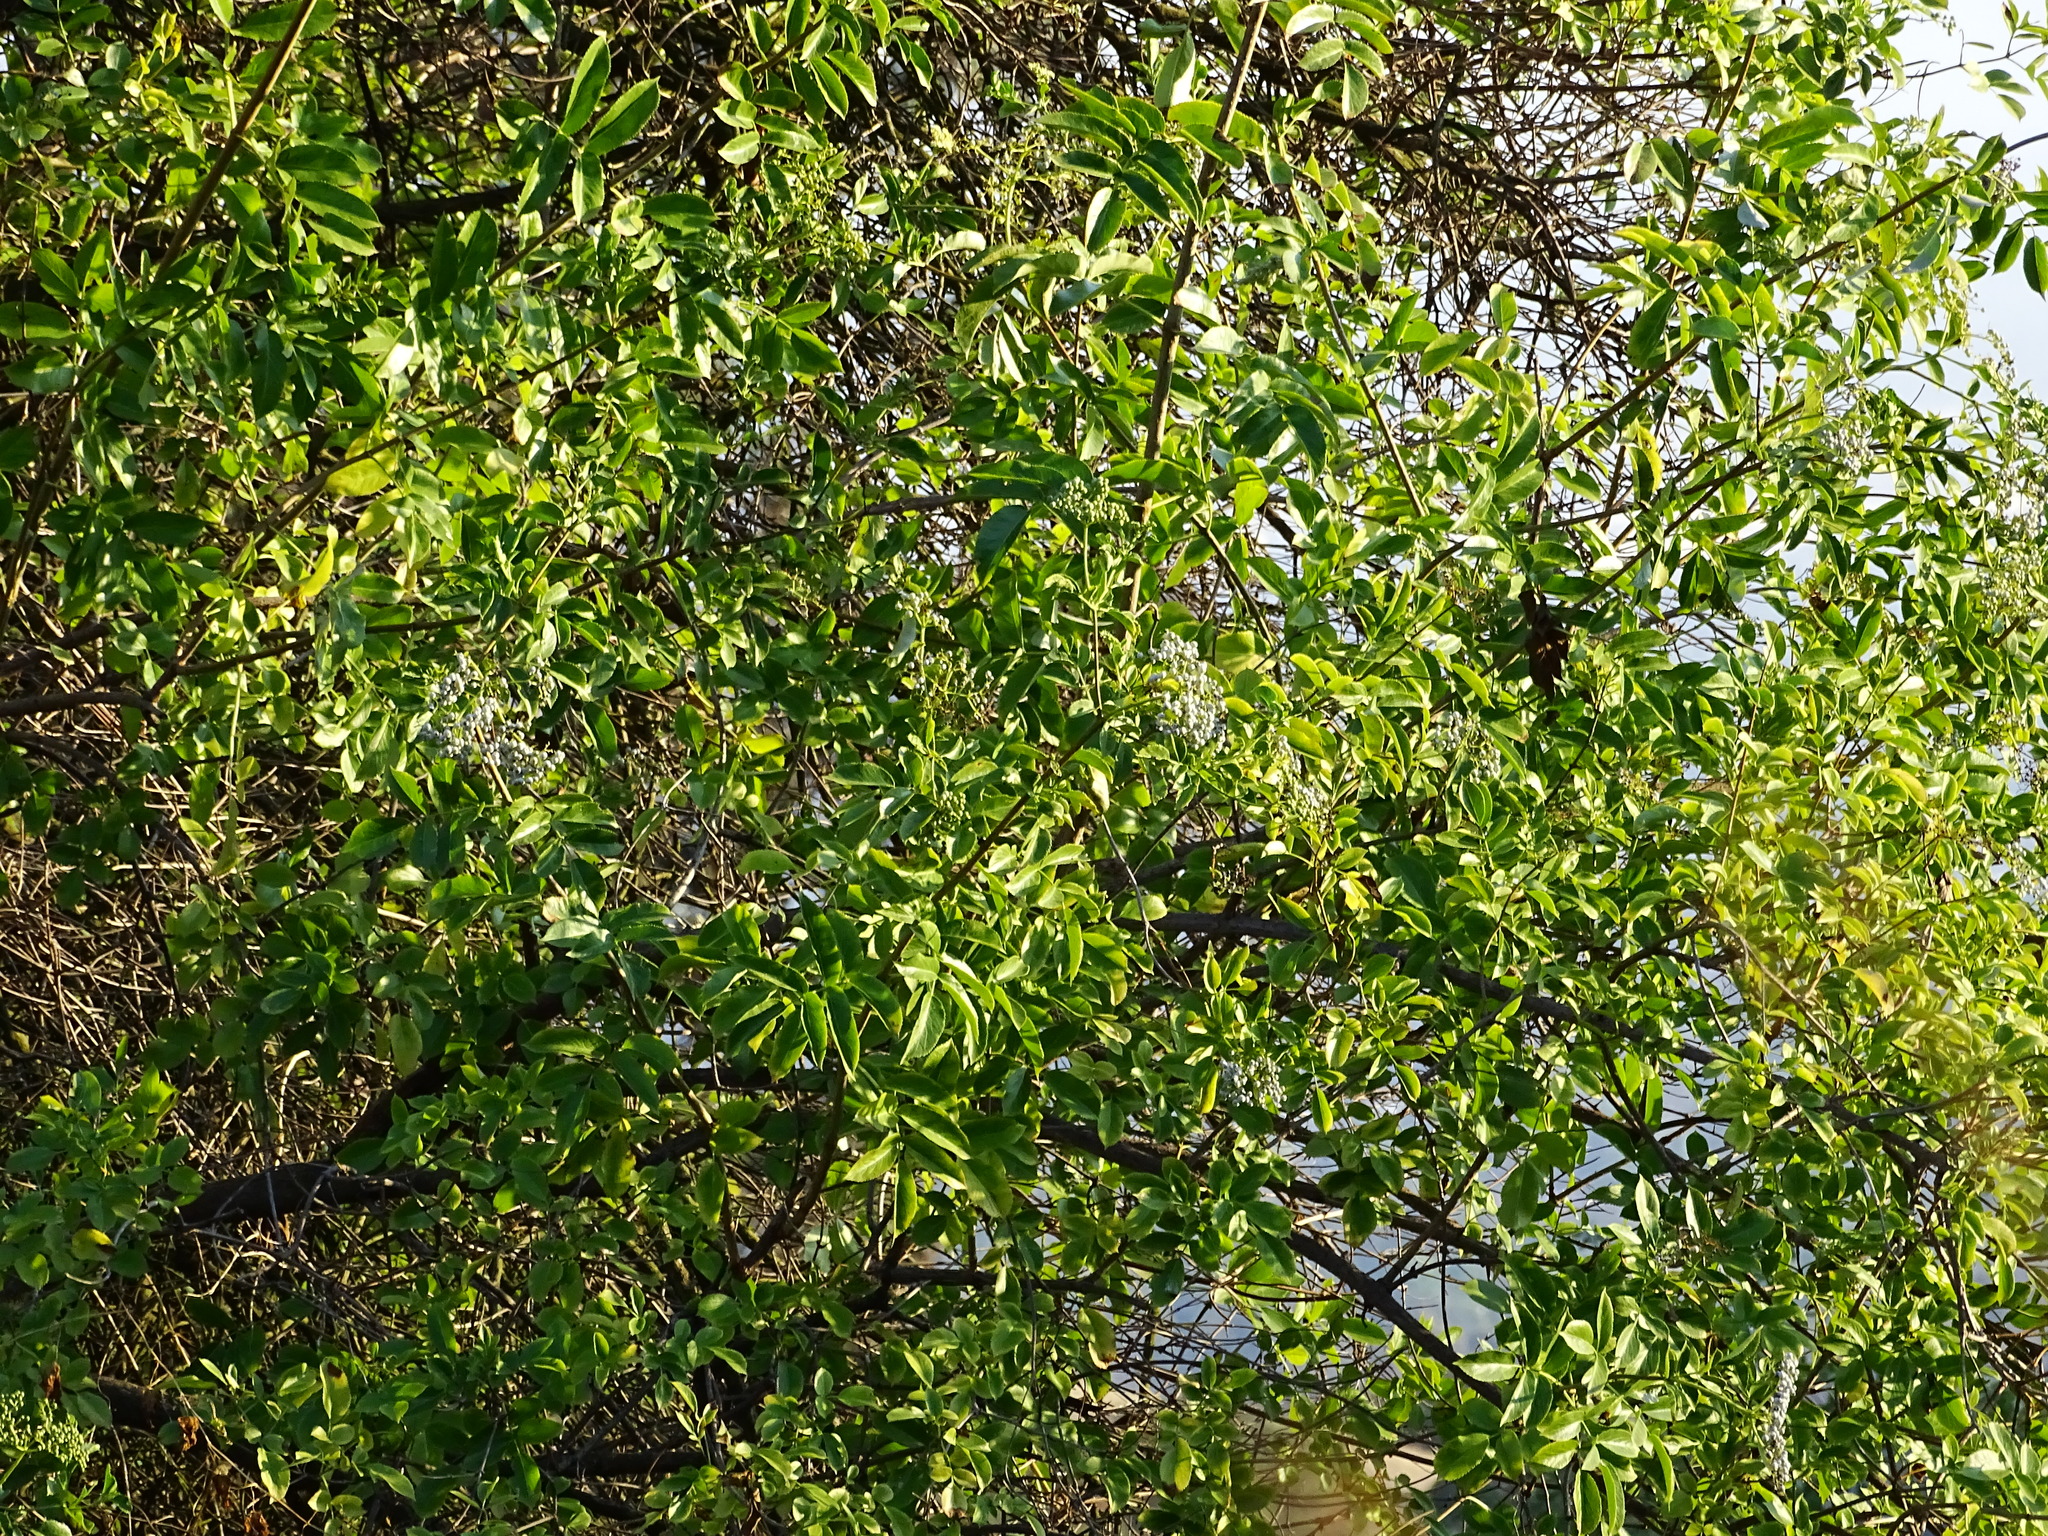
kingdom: Plantae
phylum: Tracheophyta
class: Magnoliopsida
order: Dipsacales
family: Viburnaceae
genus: Sambucus
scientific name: Sambucus cerulea
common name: Blue elder
